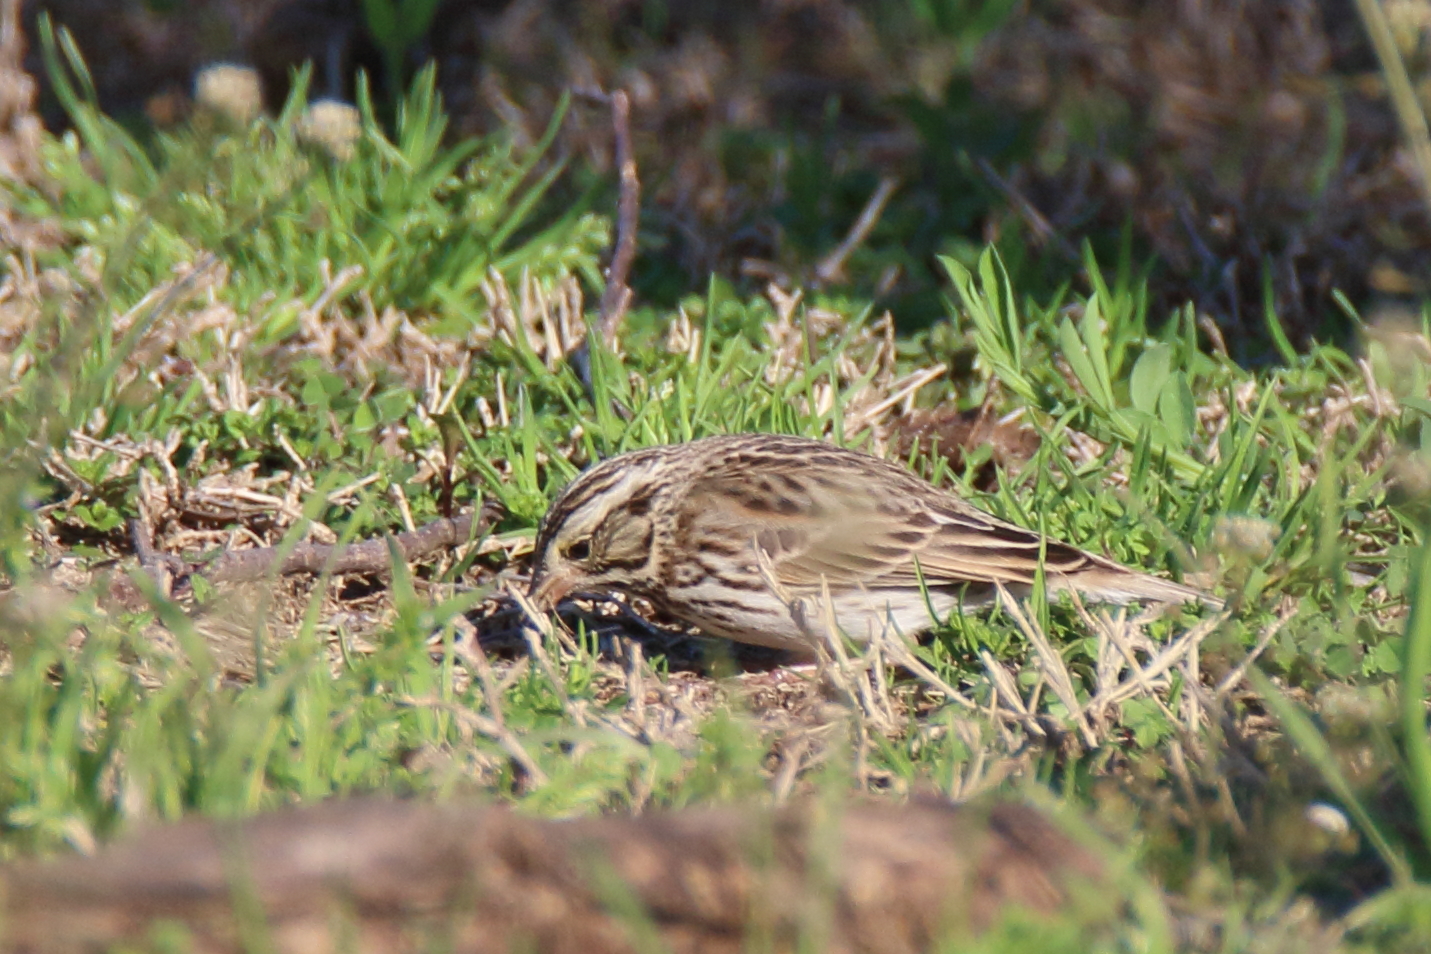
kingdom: Animalia
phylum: Chordata
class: Aves
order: Passeriformes
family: Passerellidae
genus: Passerculus
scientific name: Passerculus sandwichensis
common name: Savannah sparrow
